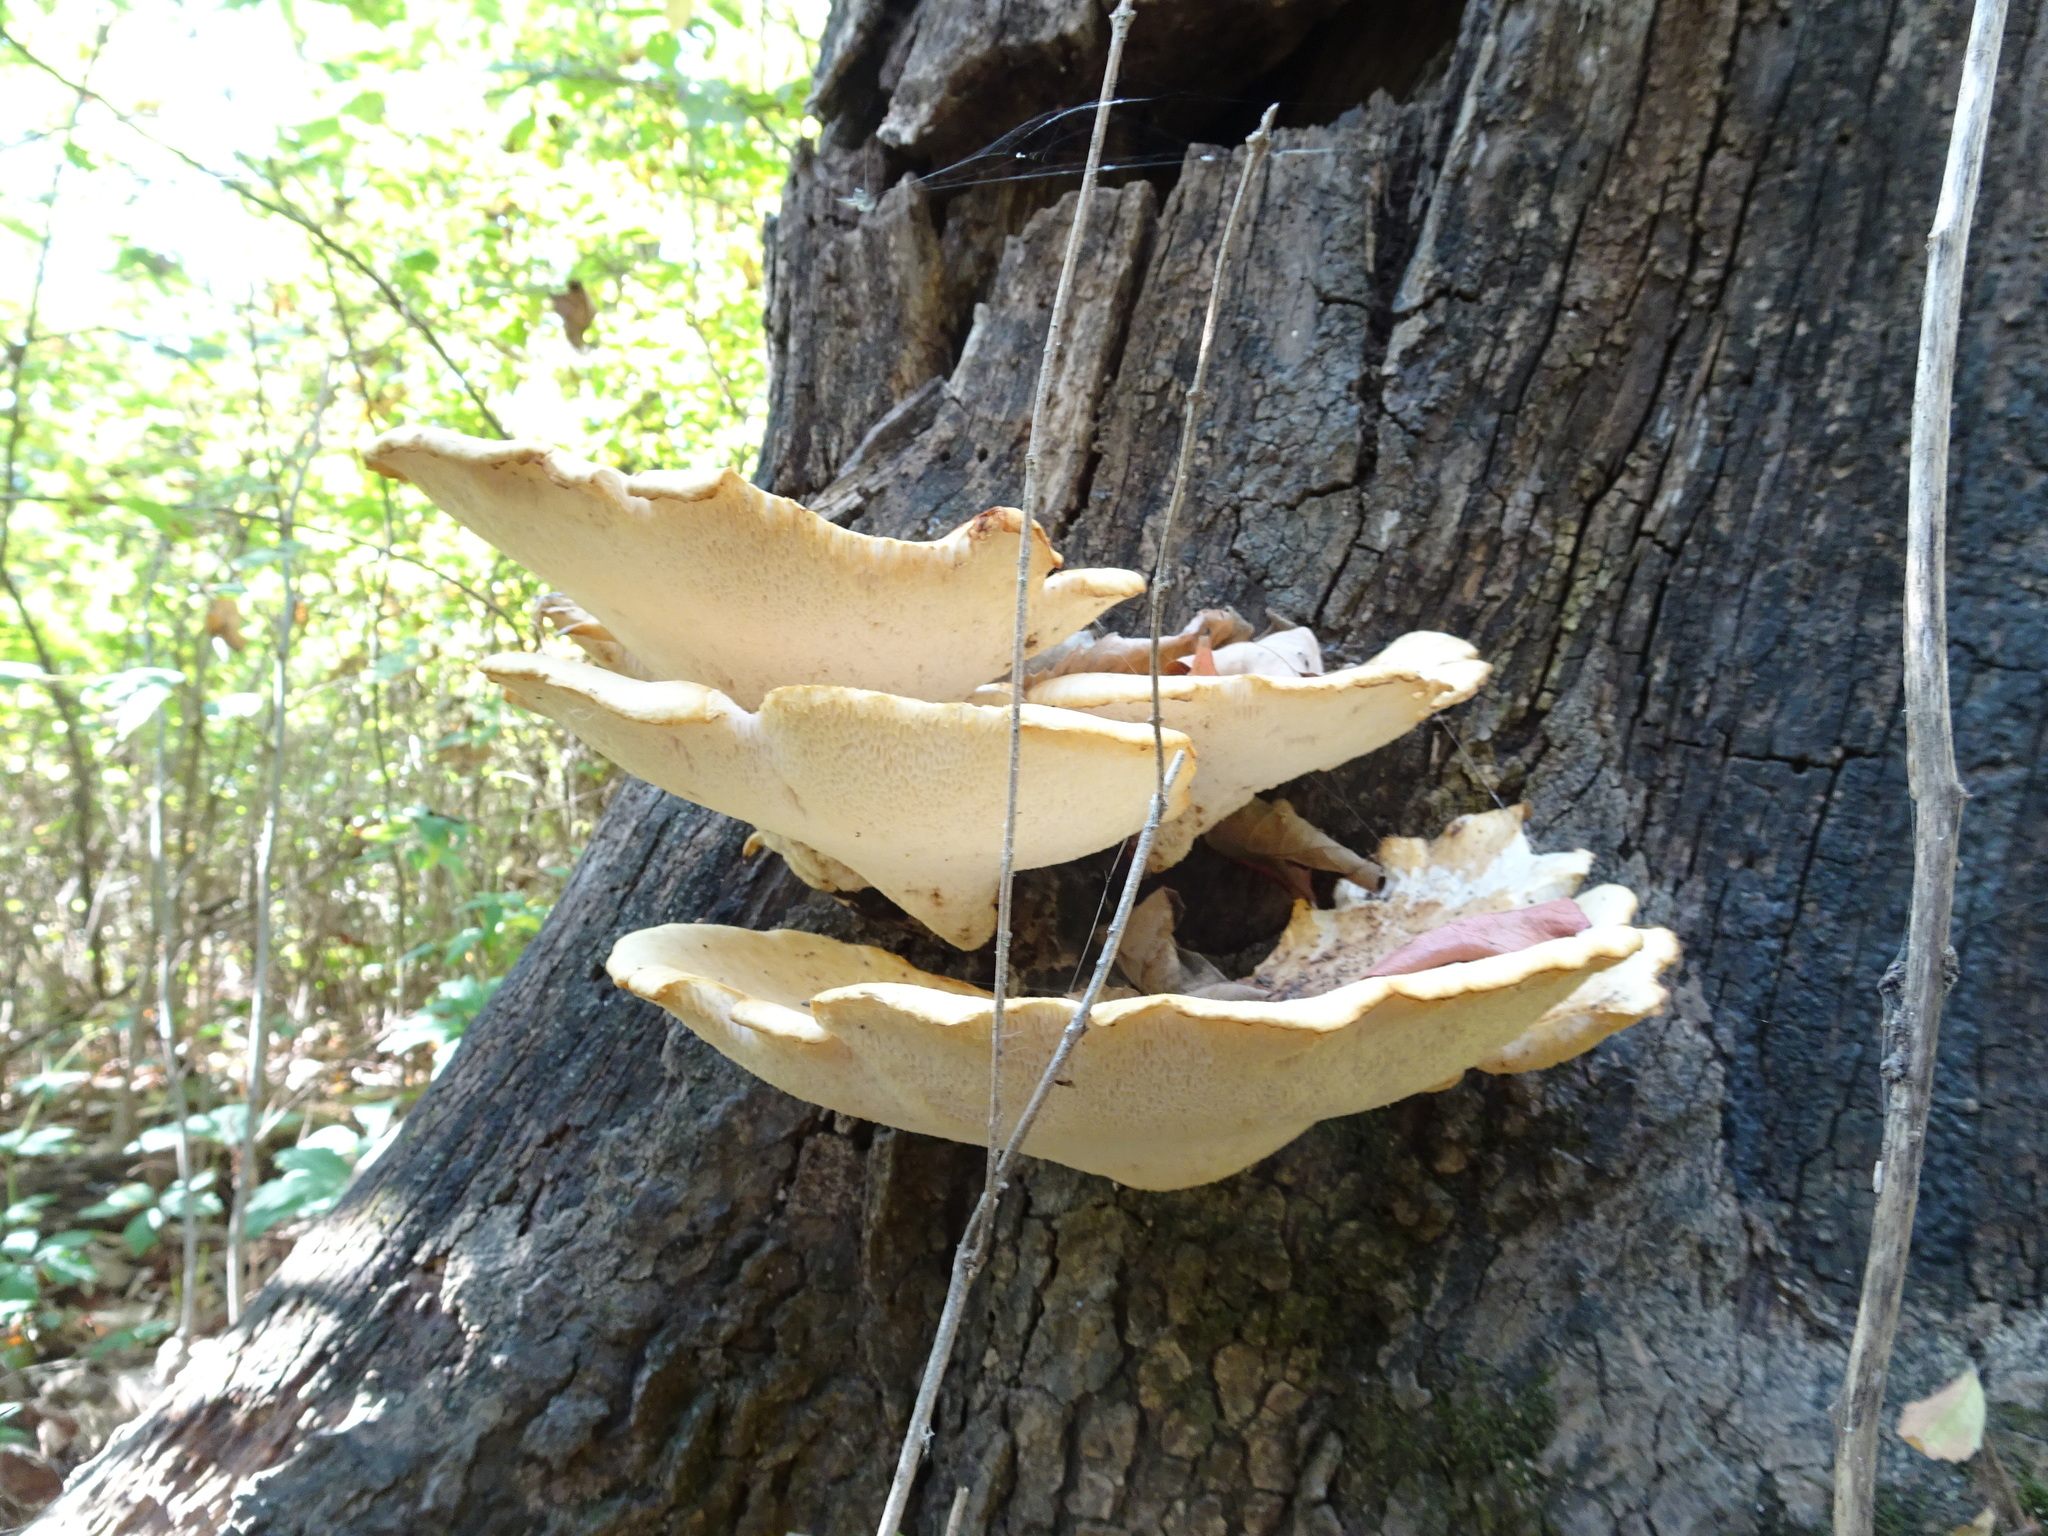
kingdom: Fungi
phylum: Basidiomycota
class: Agaricomycetes
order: Polyporales
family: Polyporaceae
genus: Cerioporus
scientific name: Cerioporus squamosus
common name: Dryad's saddle
